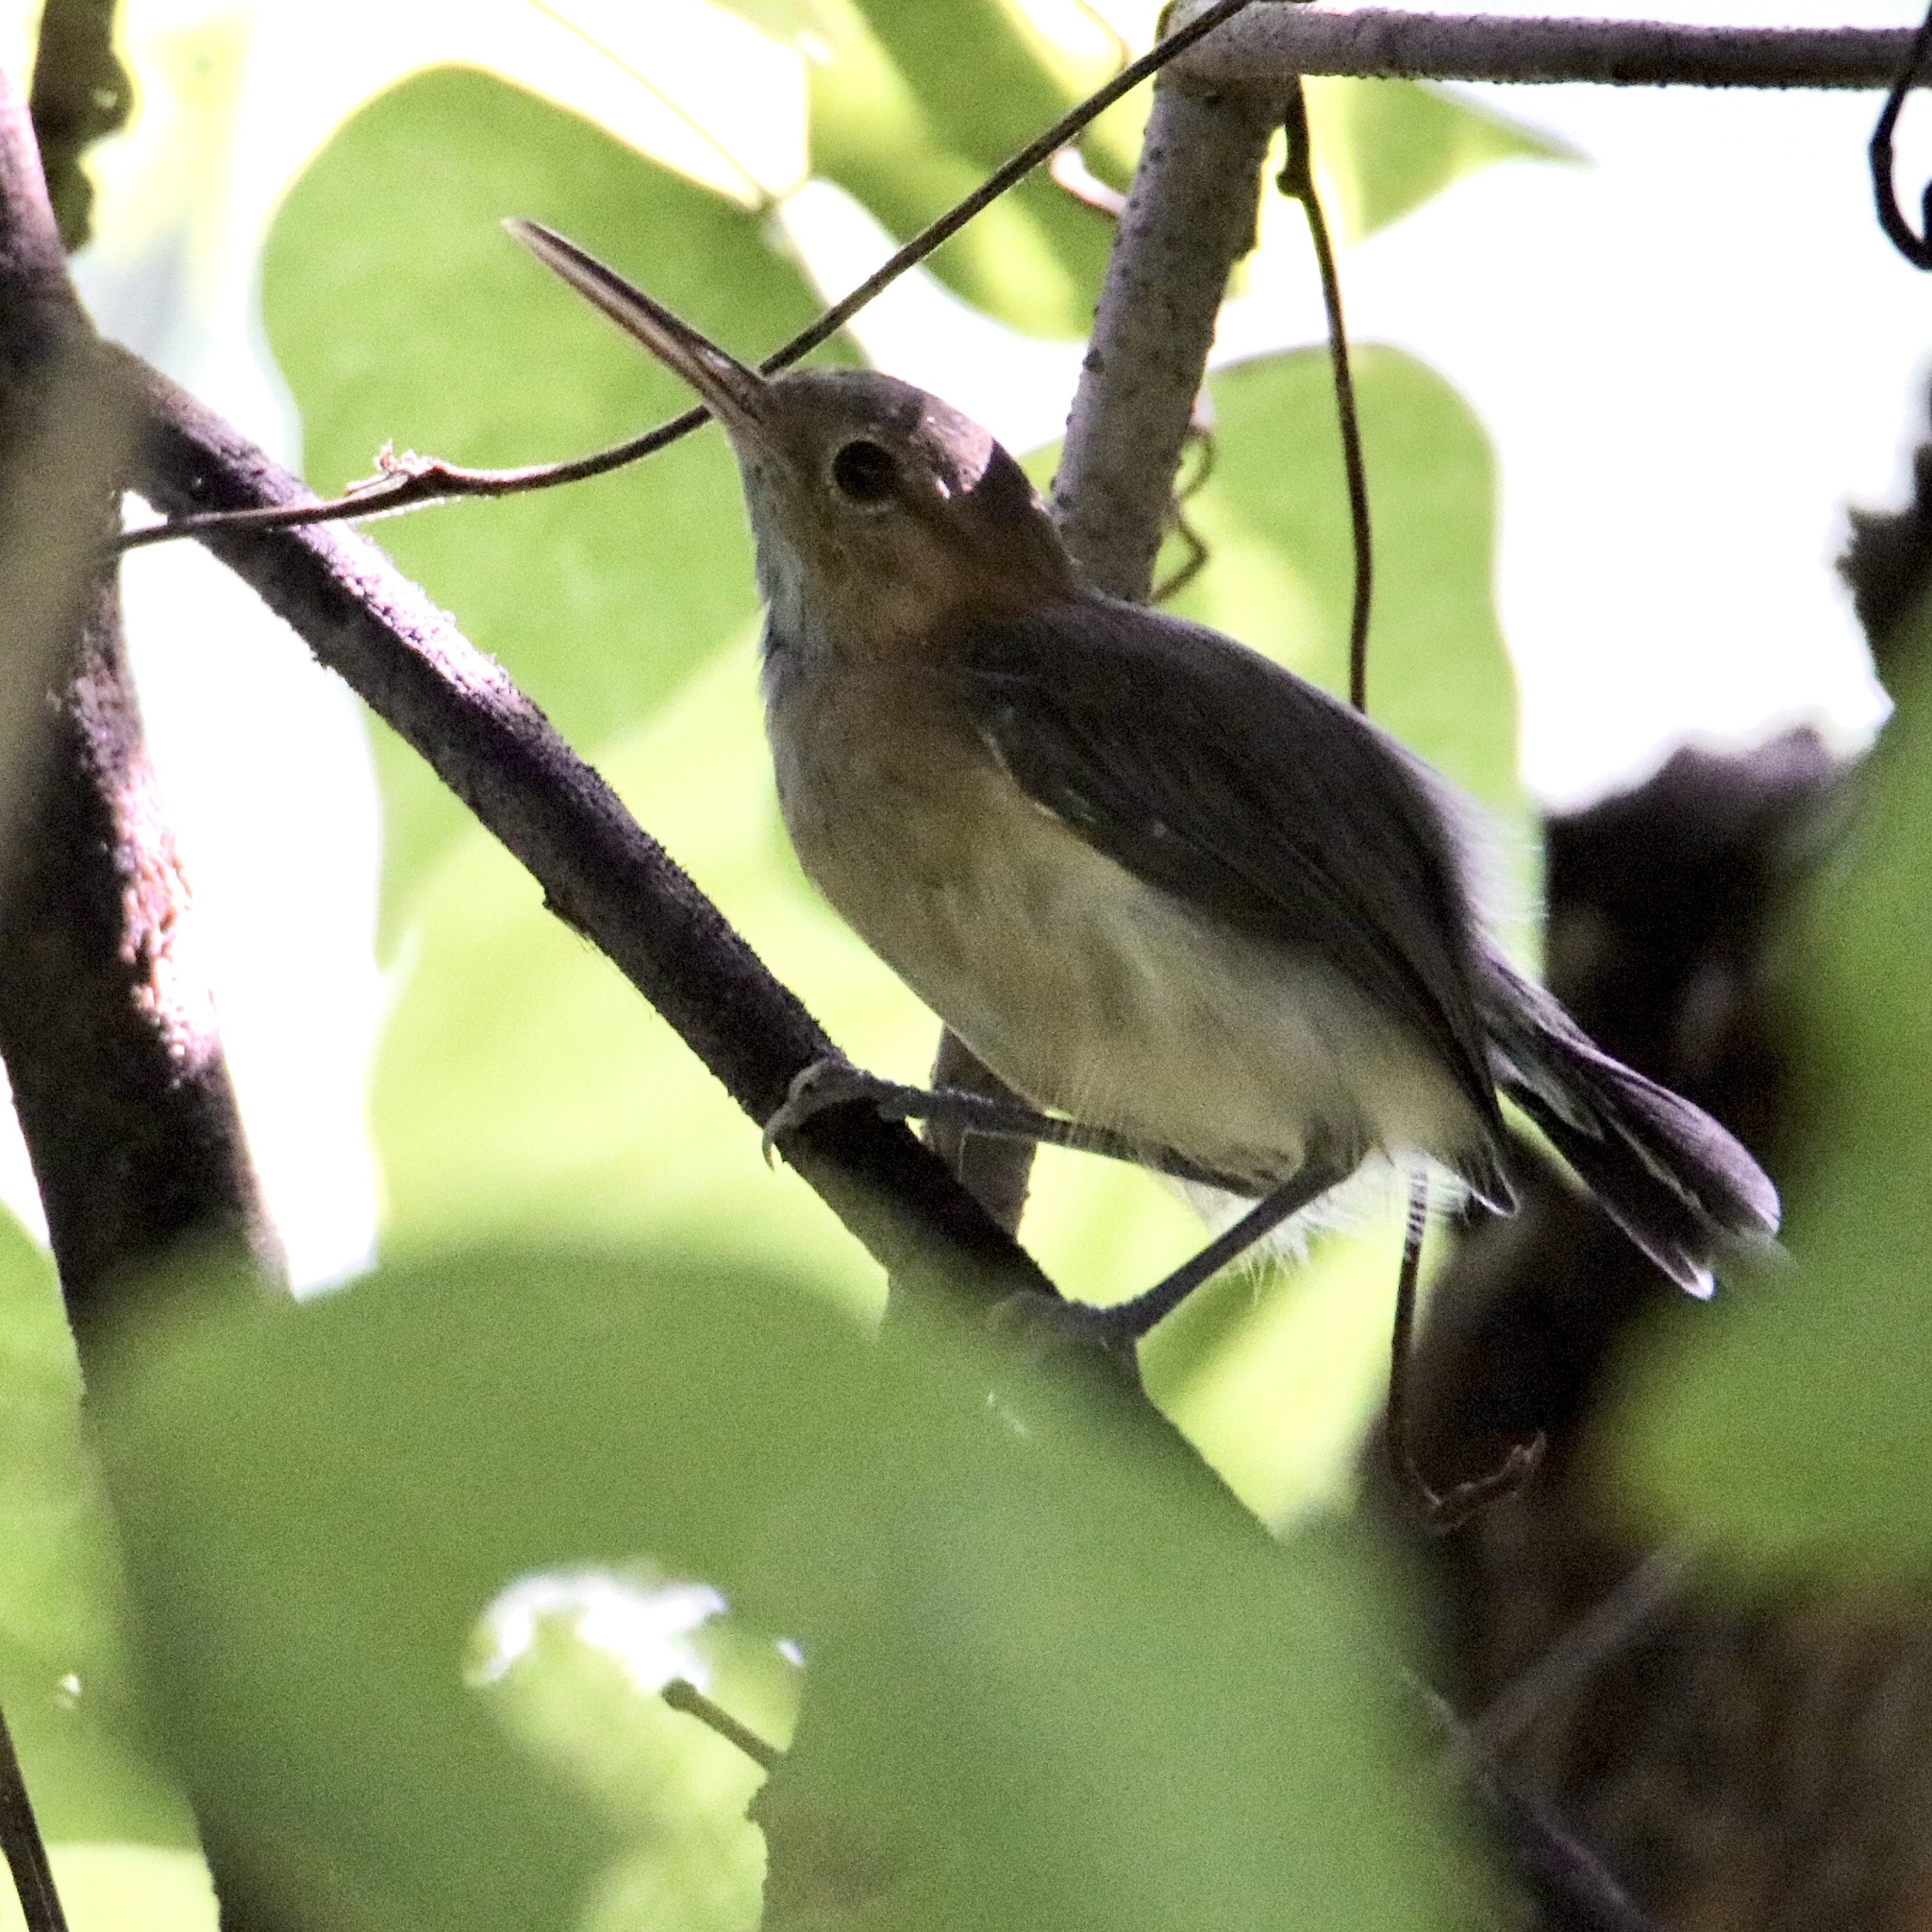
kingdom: Animalia
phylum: Chordata
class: Aves
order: Passeriformes
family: Polioptilidae
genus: Ramphocaenus
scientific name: Ramphocaenus melanurus
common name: Long-billed gnatwren
